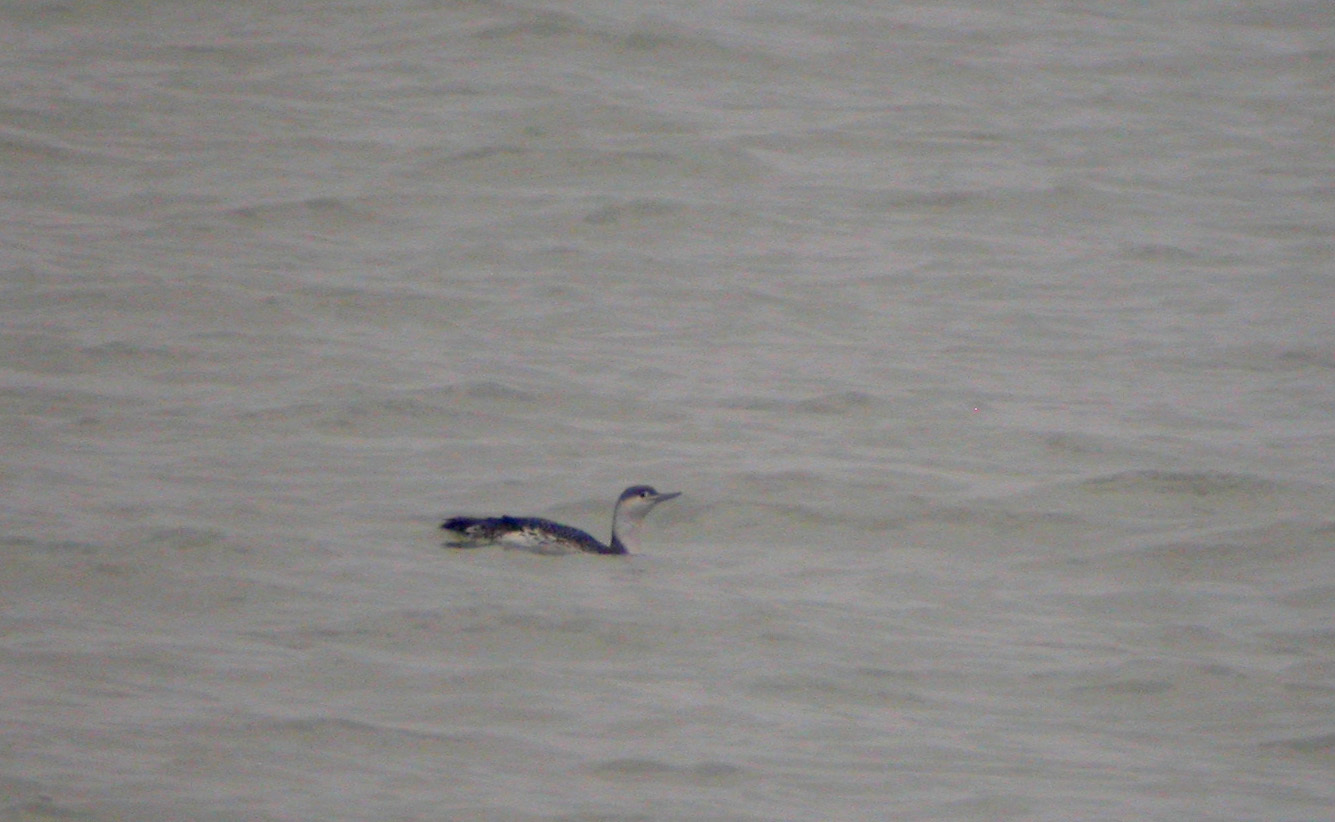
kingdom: Animalia
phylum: Chordata
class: Aves
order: Gaviiformes
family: Gaviidae
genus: Gavia
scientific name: Gavia stellata
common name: Red-throated loon
